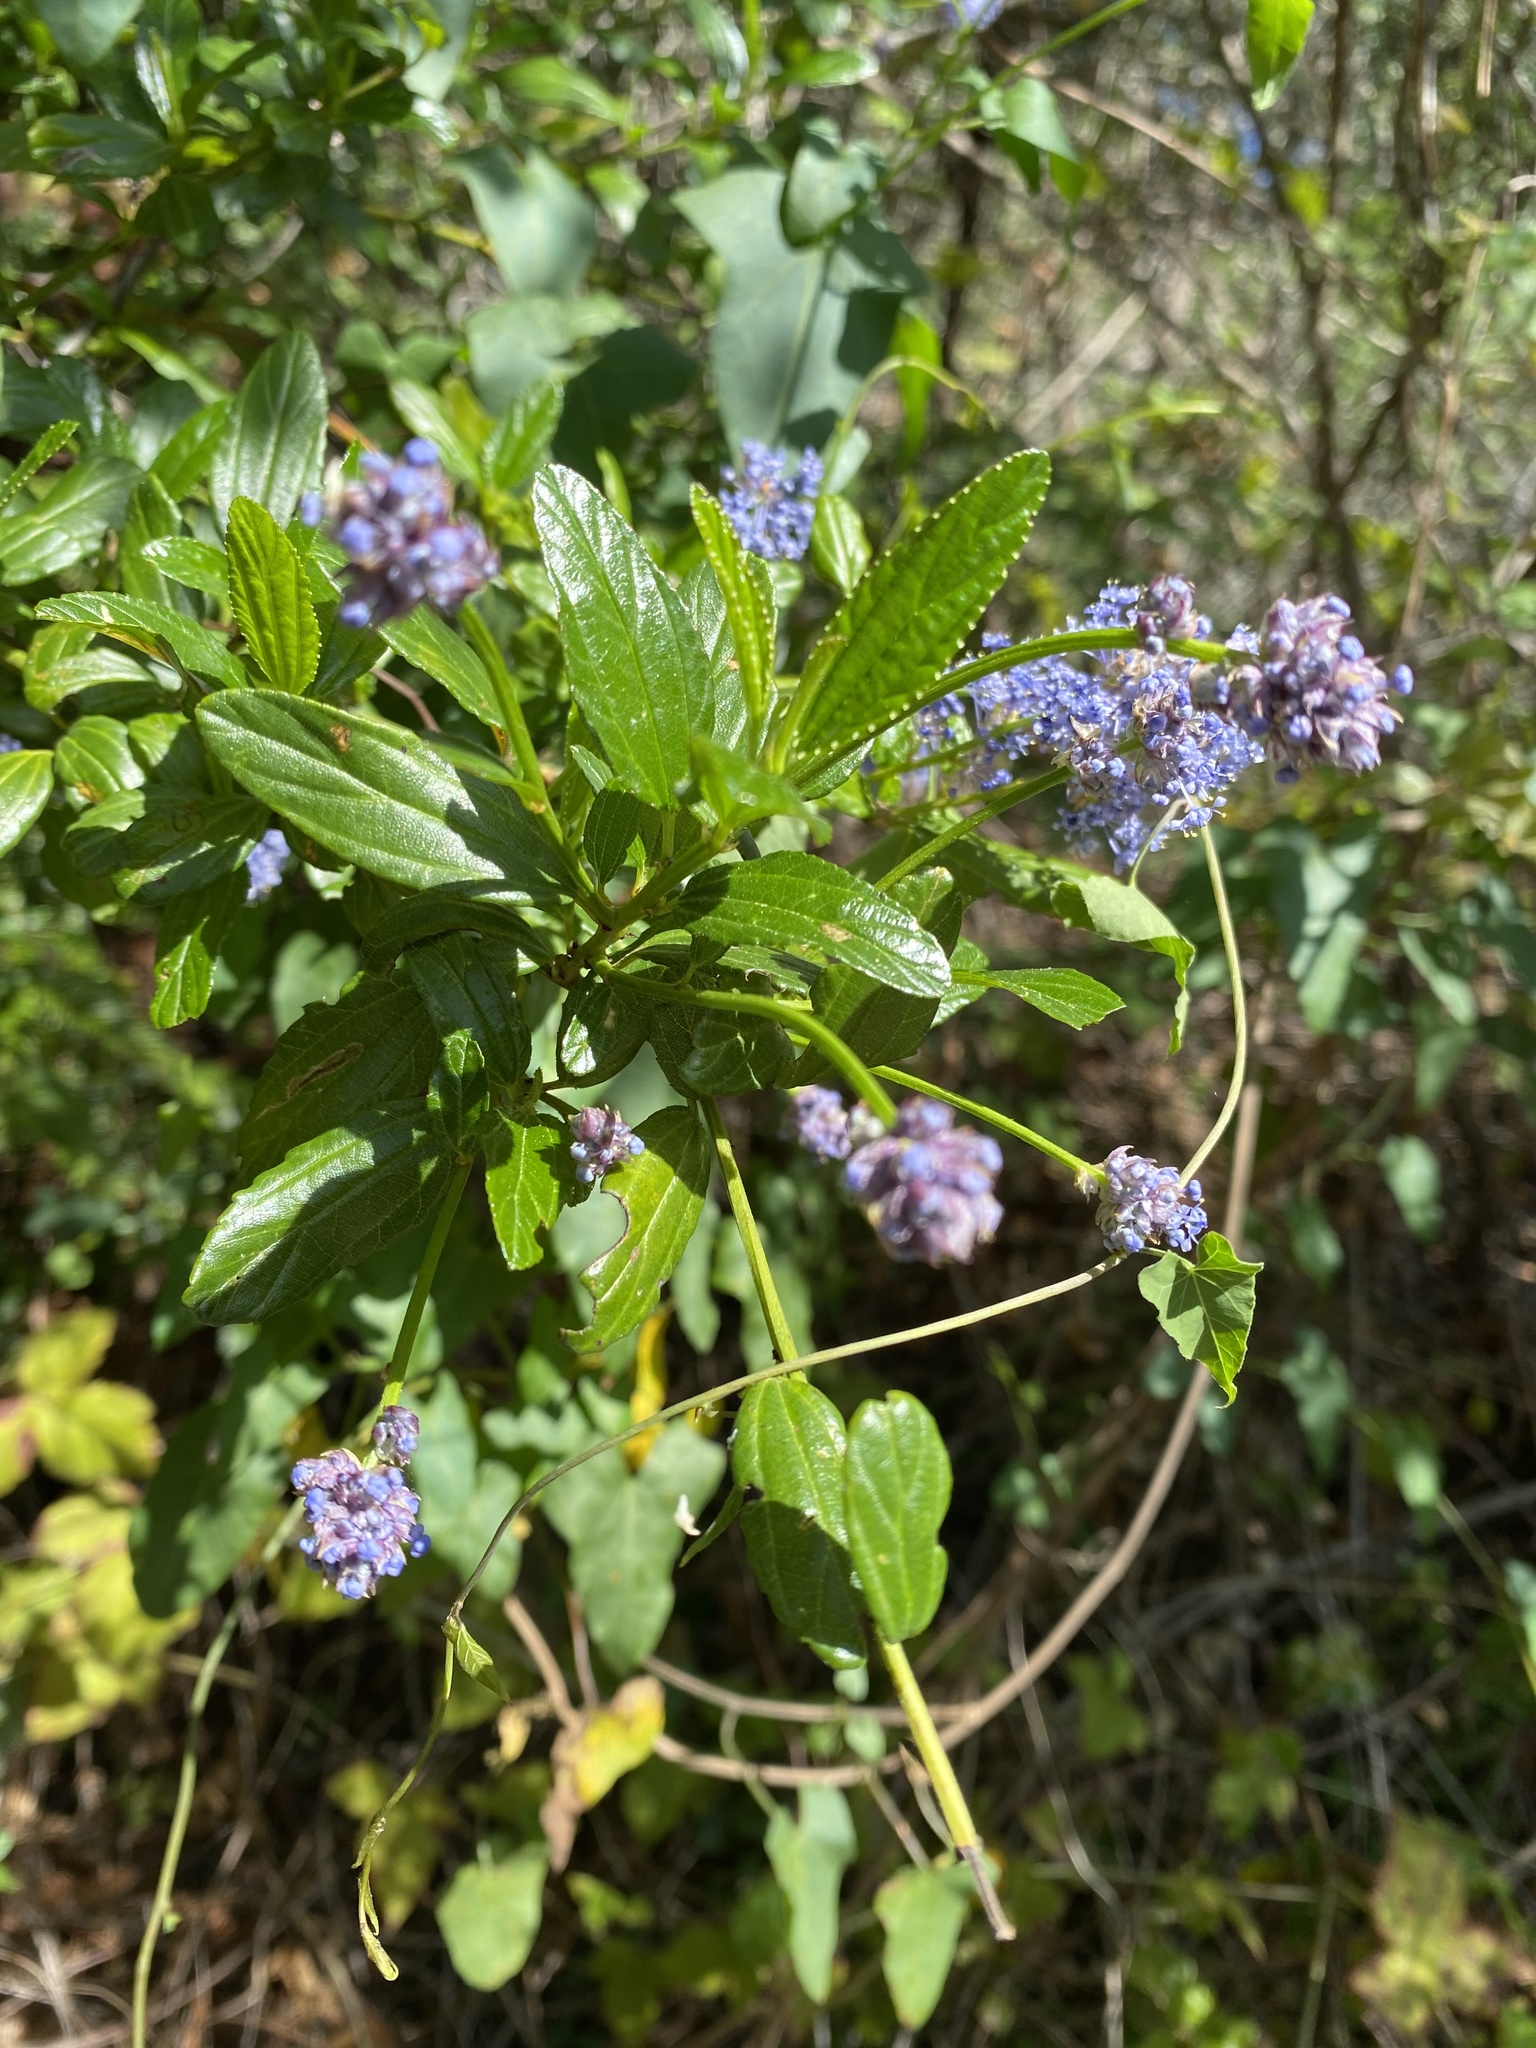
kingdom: Plantae
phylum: Tracheophyta
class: Magnoliopsida
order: Rosales
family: Rhamnaceae
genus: Ceanothus
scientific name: Ceanothus thyrsiflorus
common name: California-lilac
